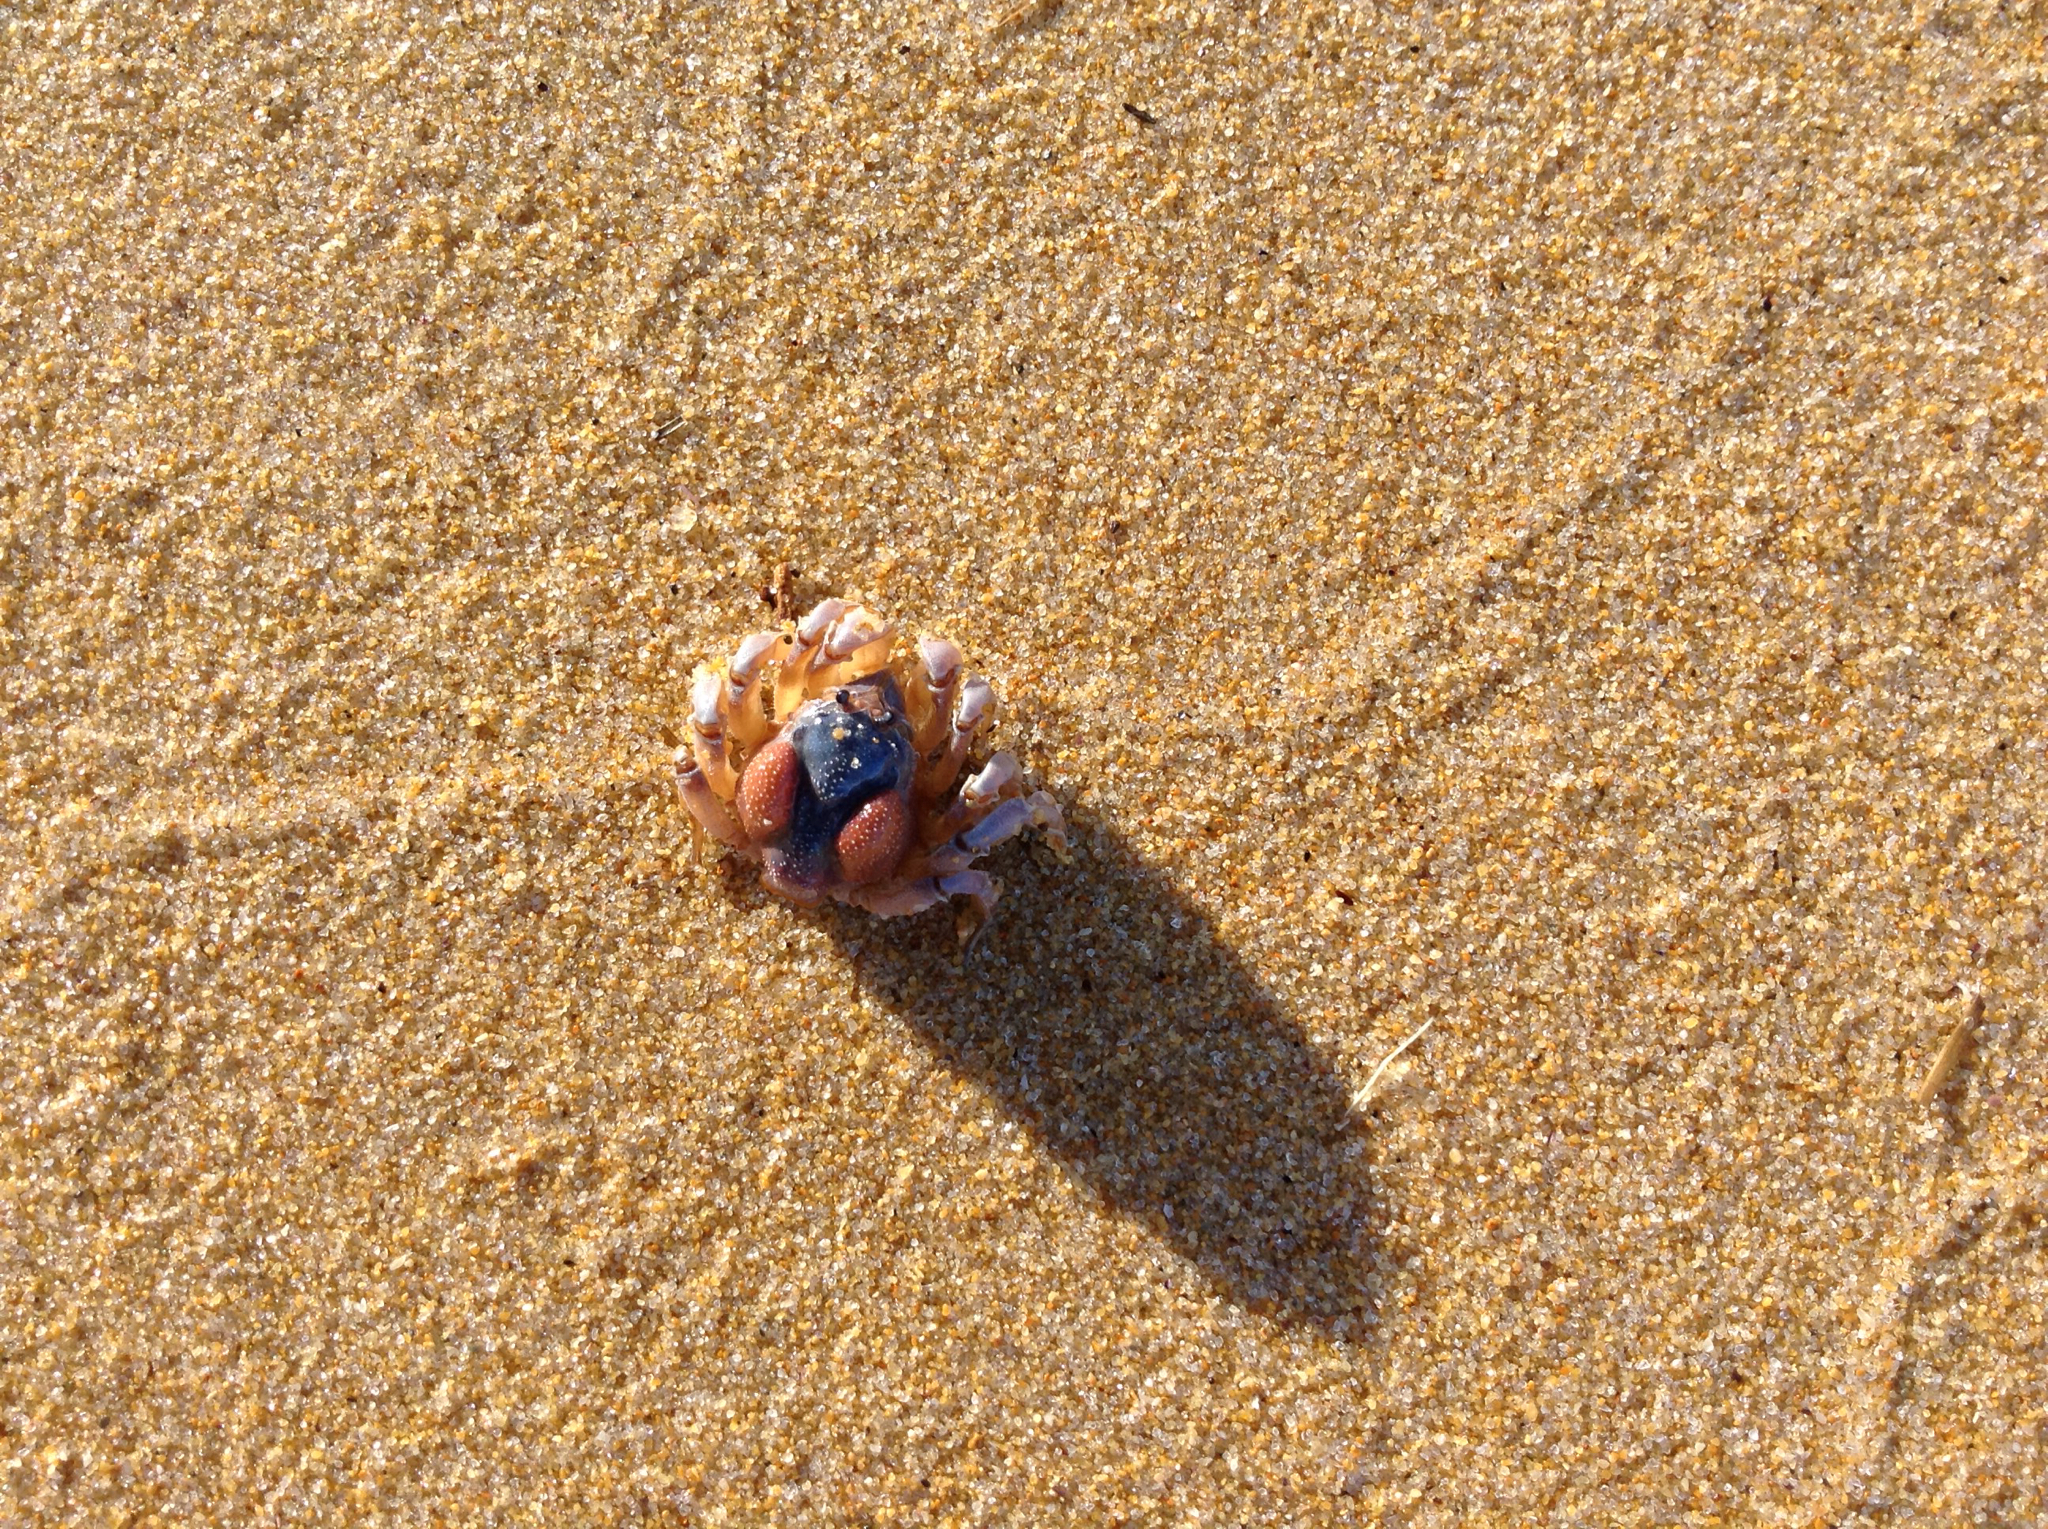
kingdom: Animalia
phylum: Arthropoda
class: Malacostraca
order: Decapoda
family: Mictyridae
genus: Mictyris
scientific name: Mictyris platycheles
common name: Dark blue soldier crab
